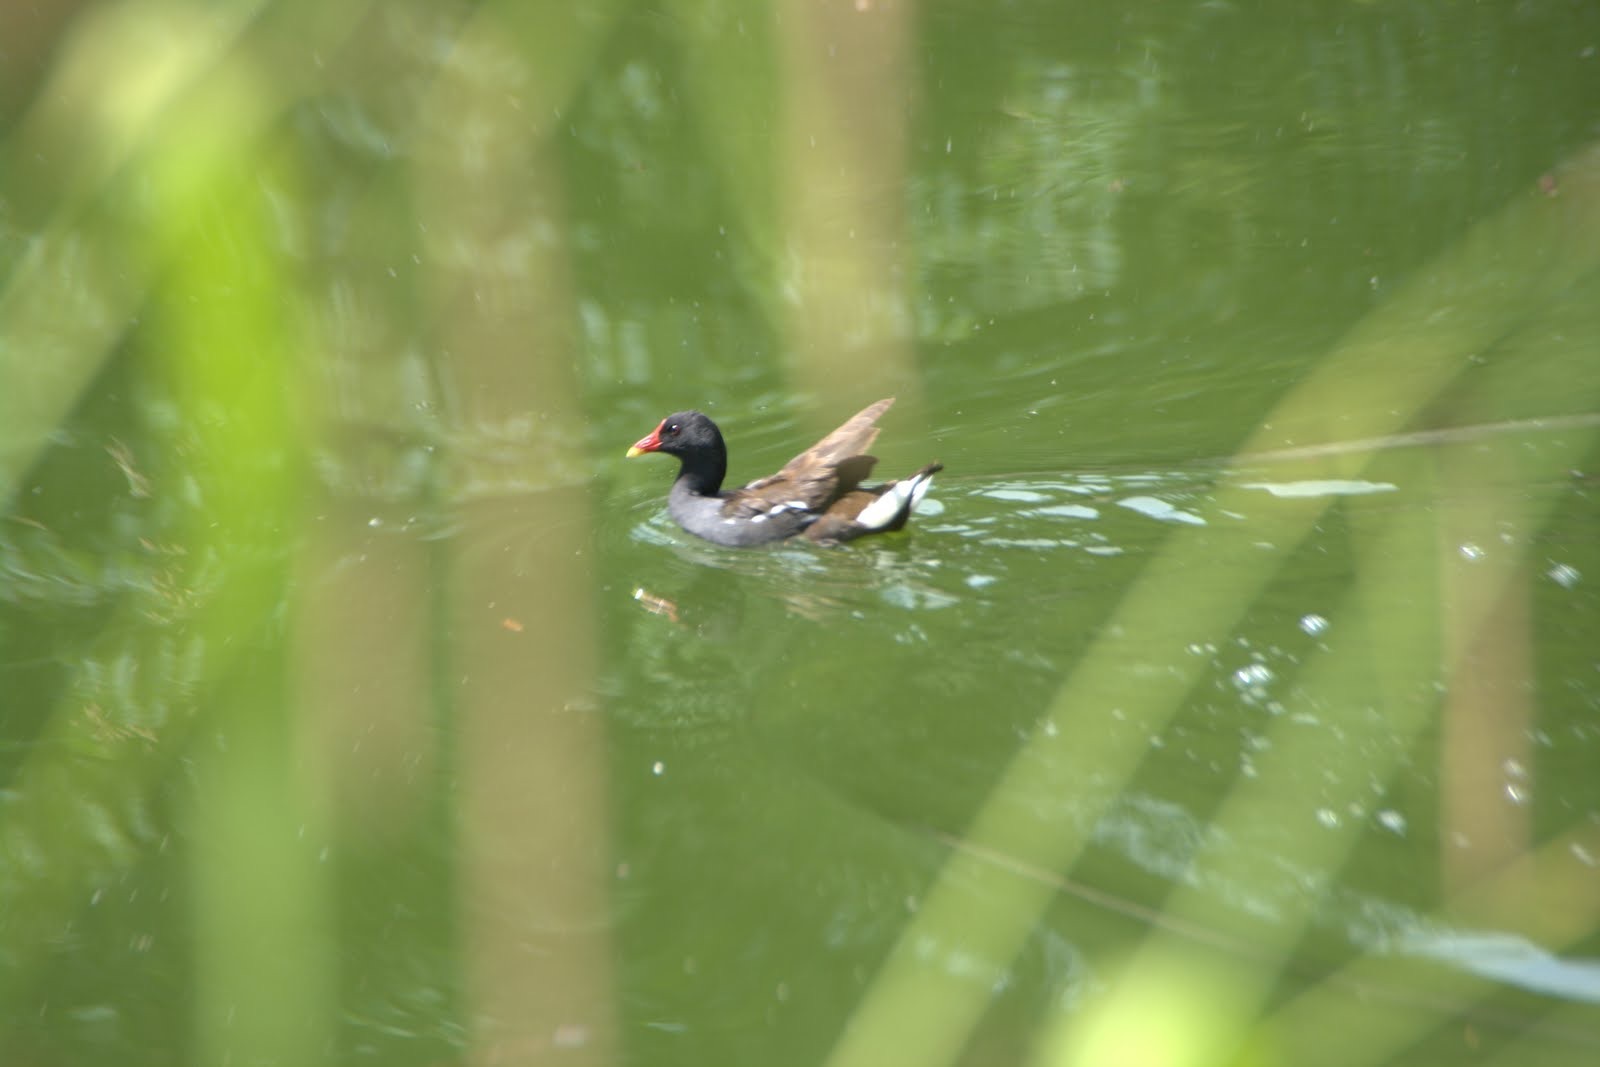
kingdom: Animalia
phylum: Chordata
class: Aves
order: Gruiformes
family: Rallidae
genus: Gallinula
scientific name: Gallinula chloropus
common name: Common moorhen
